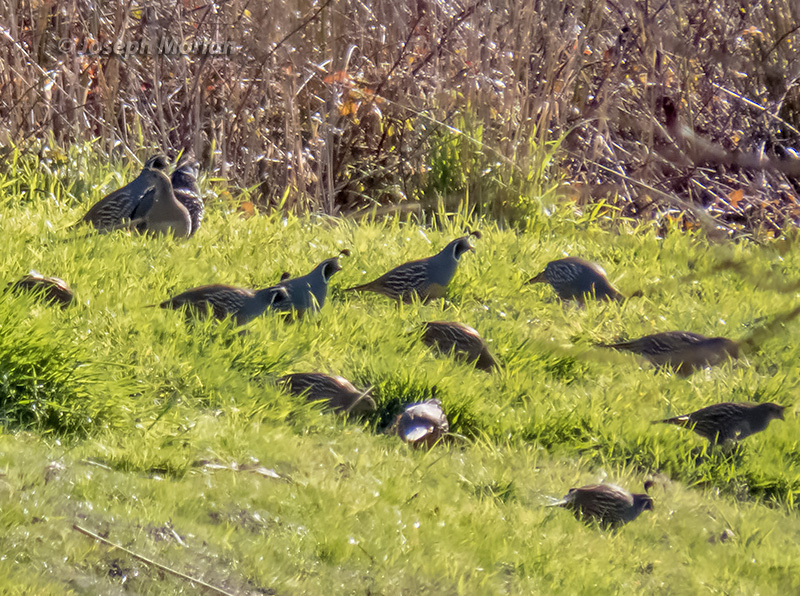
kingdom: Animalia
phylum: Chordata
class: Aves
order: Galliformes
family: Odontophoridae
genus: Callipepla
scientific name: Callipepla californica
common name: California quail
